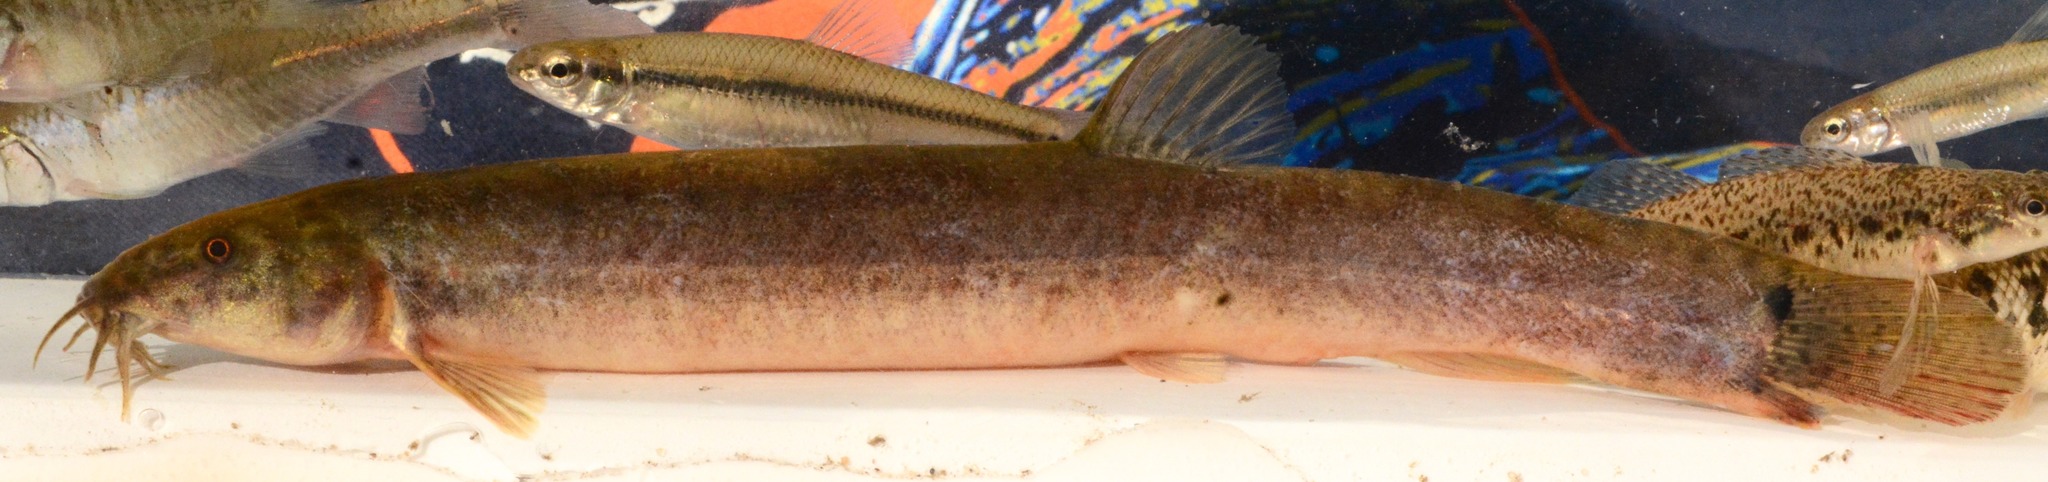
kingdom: Animalia
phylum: Chordata
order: Cypriniformes
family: Cobitidae
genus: Misgurnus
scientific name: Misgurnus anguillicaudatus
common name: Oriental weatherfish
